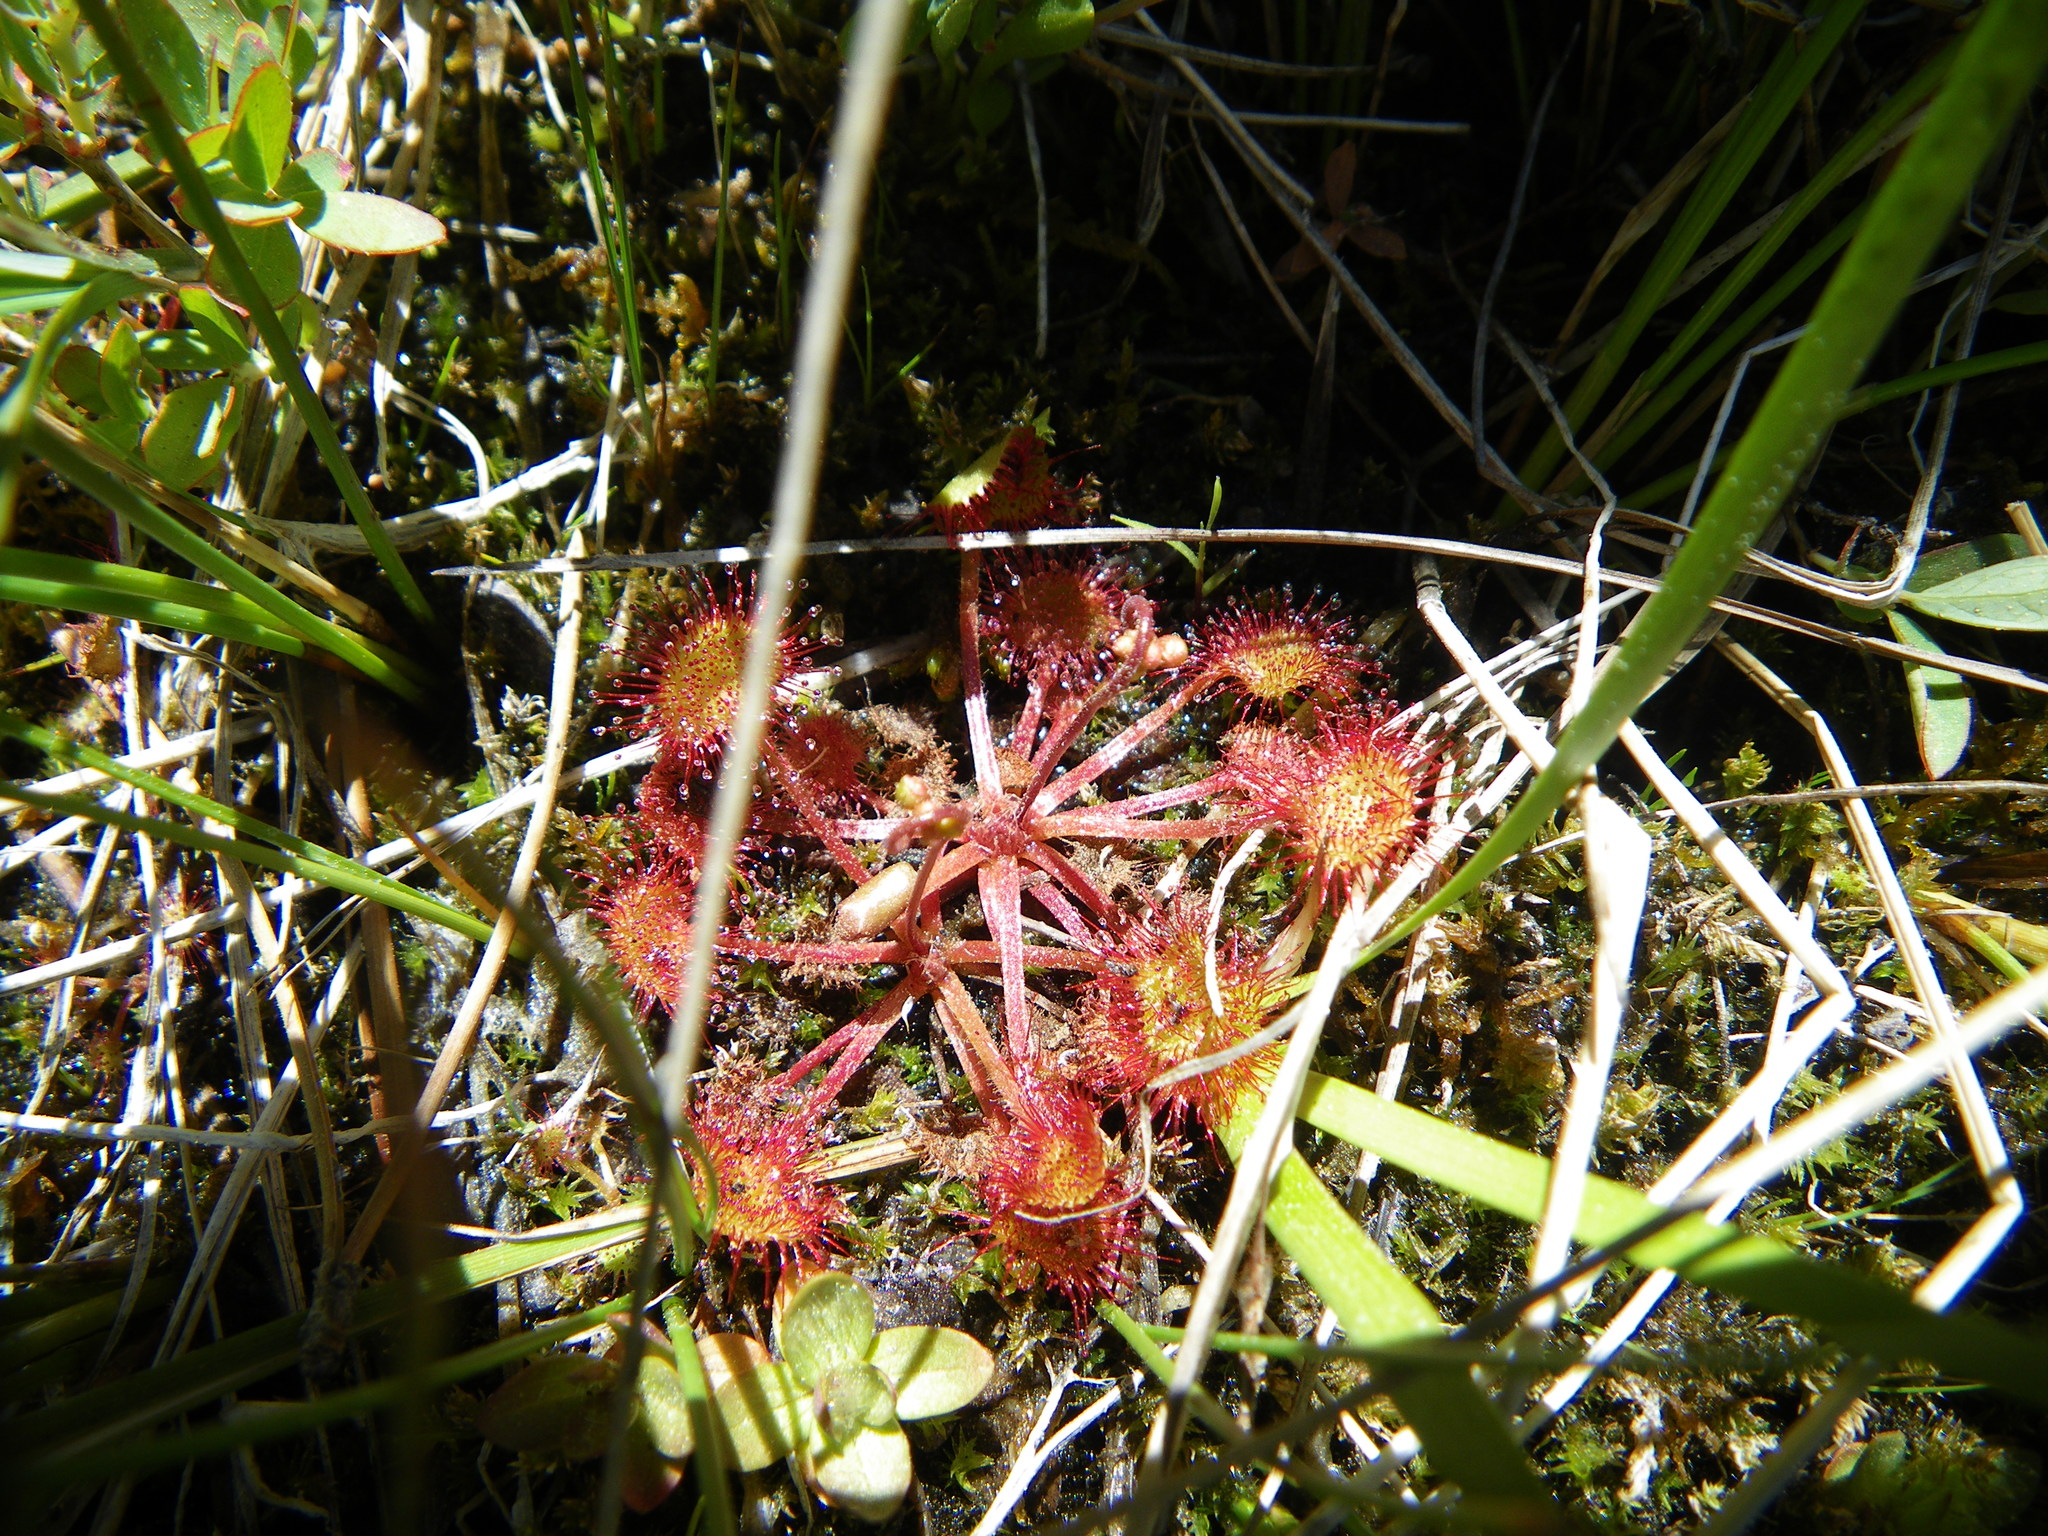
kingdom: Plantae
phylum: Tracheophyta
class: Magnoliopsida
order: Caryophyllales
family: Droseraceae
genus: Drosera
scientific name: Drosera rotundifolia
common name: Round-leaved sundew
